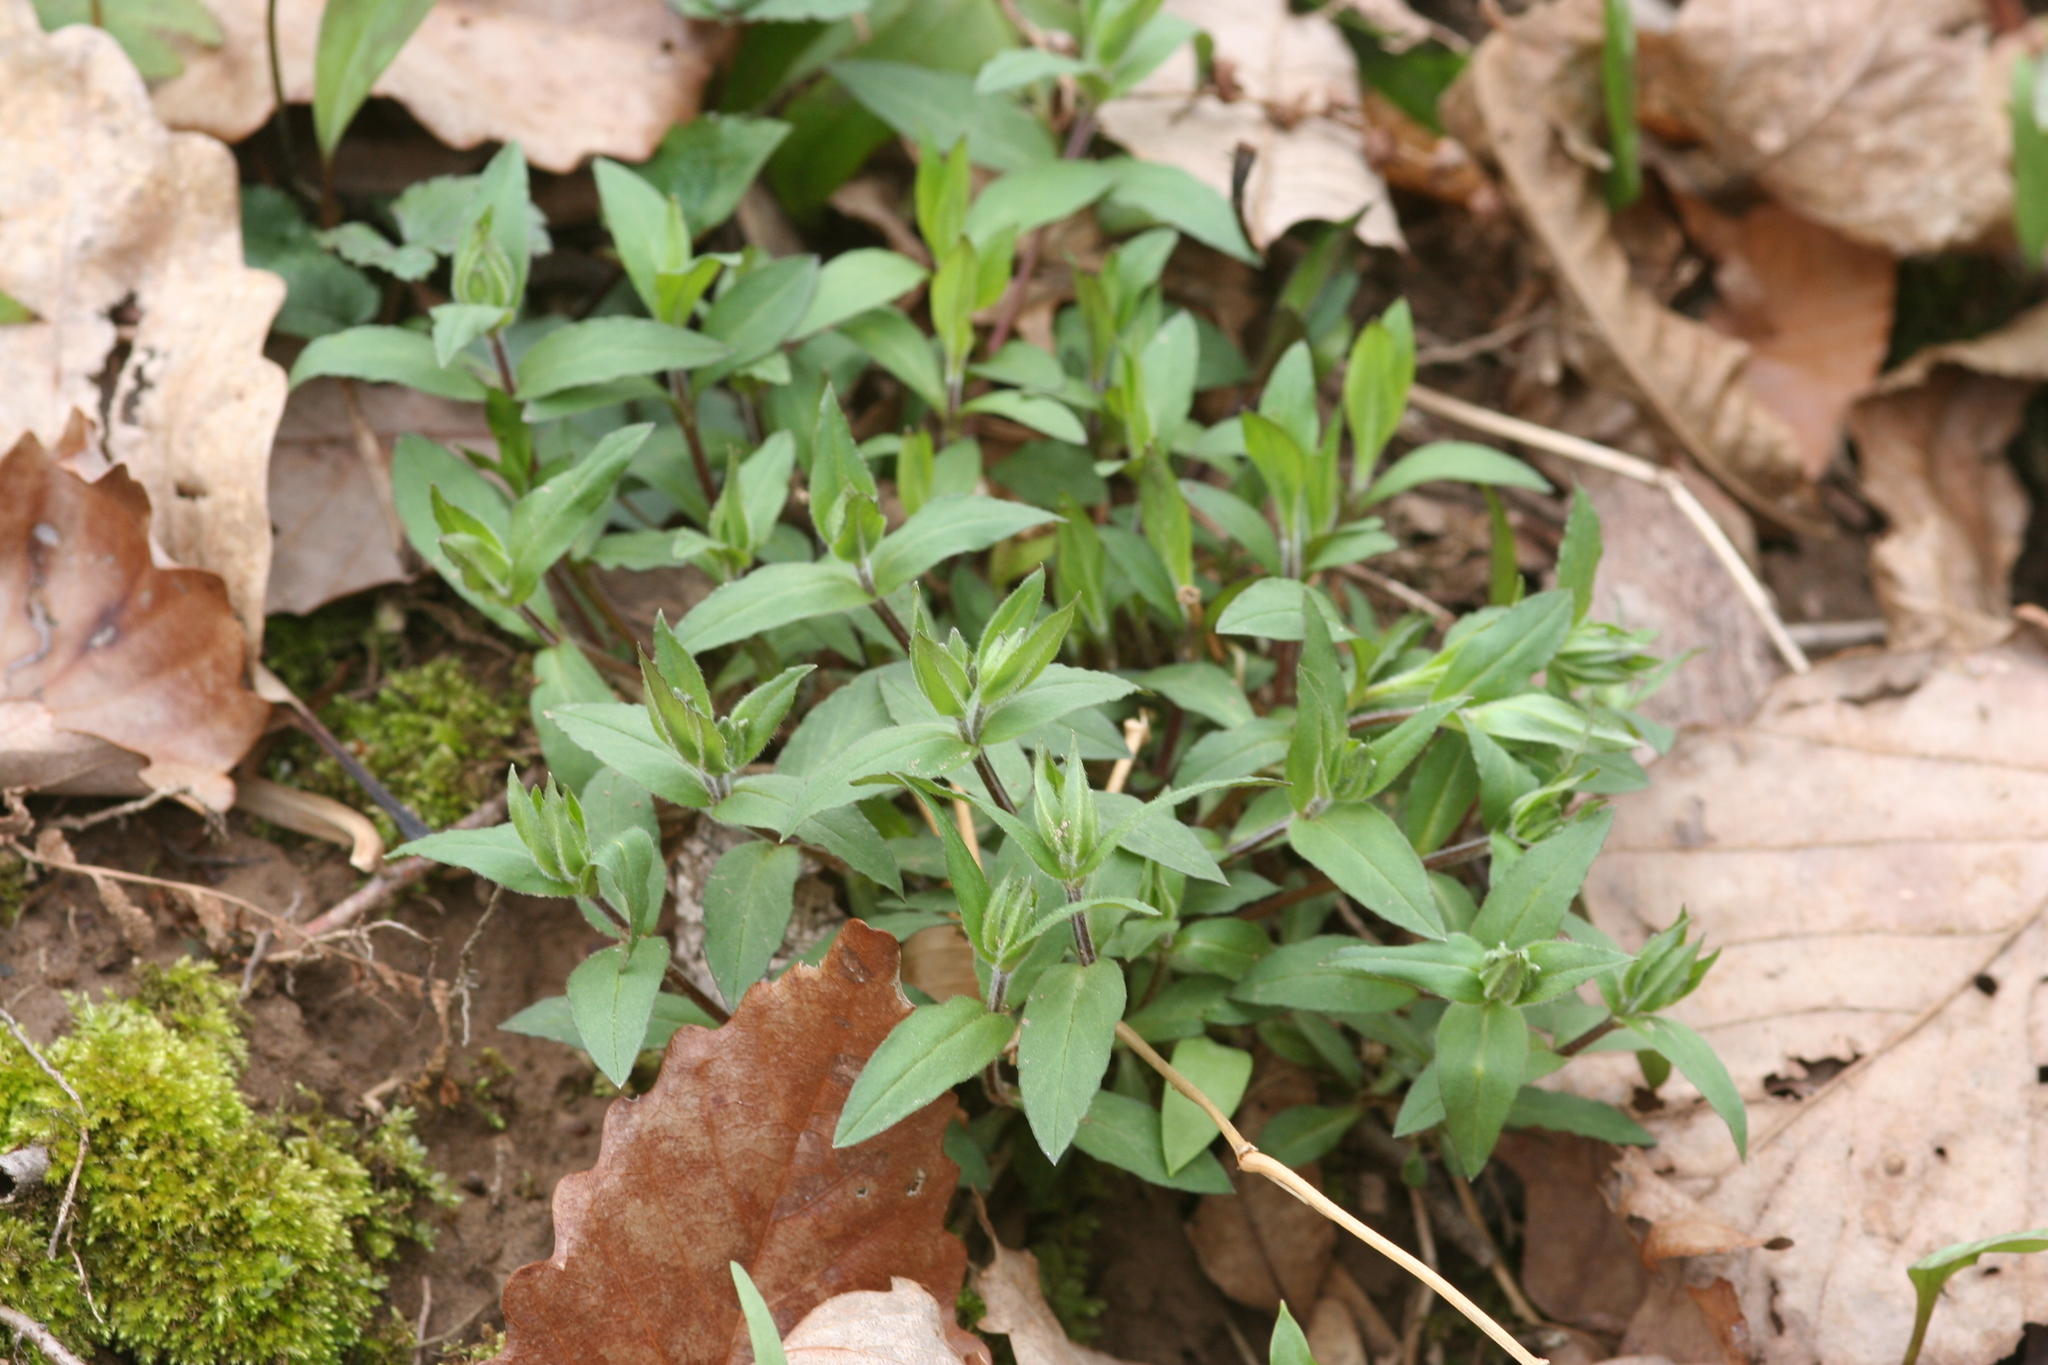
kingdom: Plantae
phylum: Tracheophyta
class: Magnoliopsida
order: Ericales
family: Polemoniaceae
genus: Phlox
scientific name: Phlox divaricata
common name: Blue phlox
